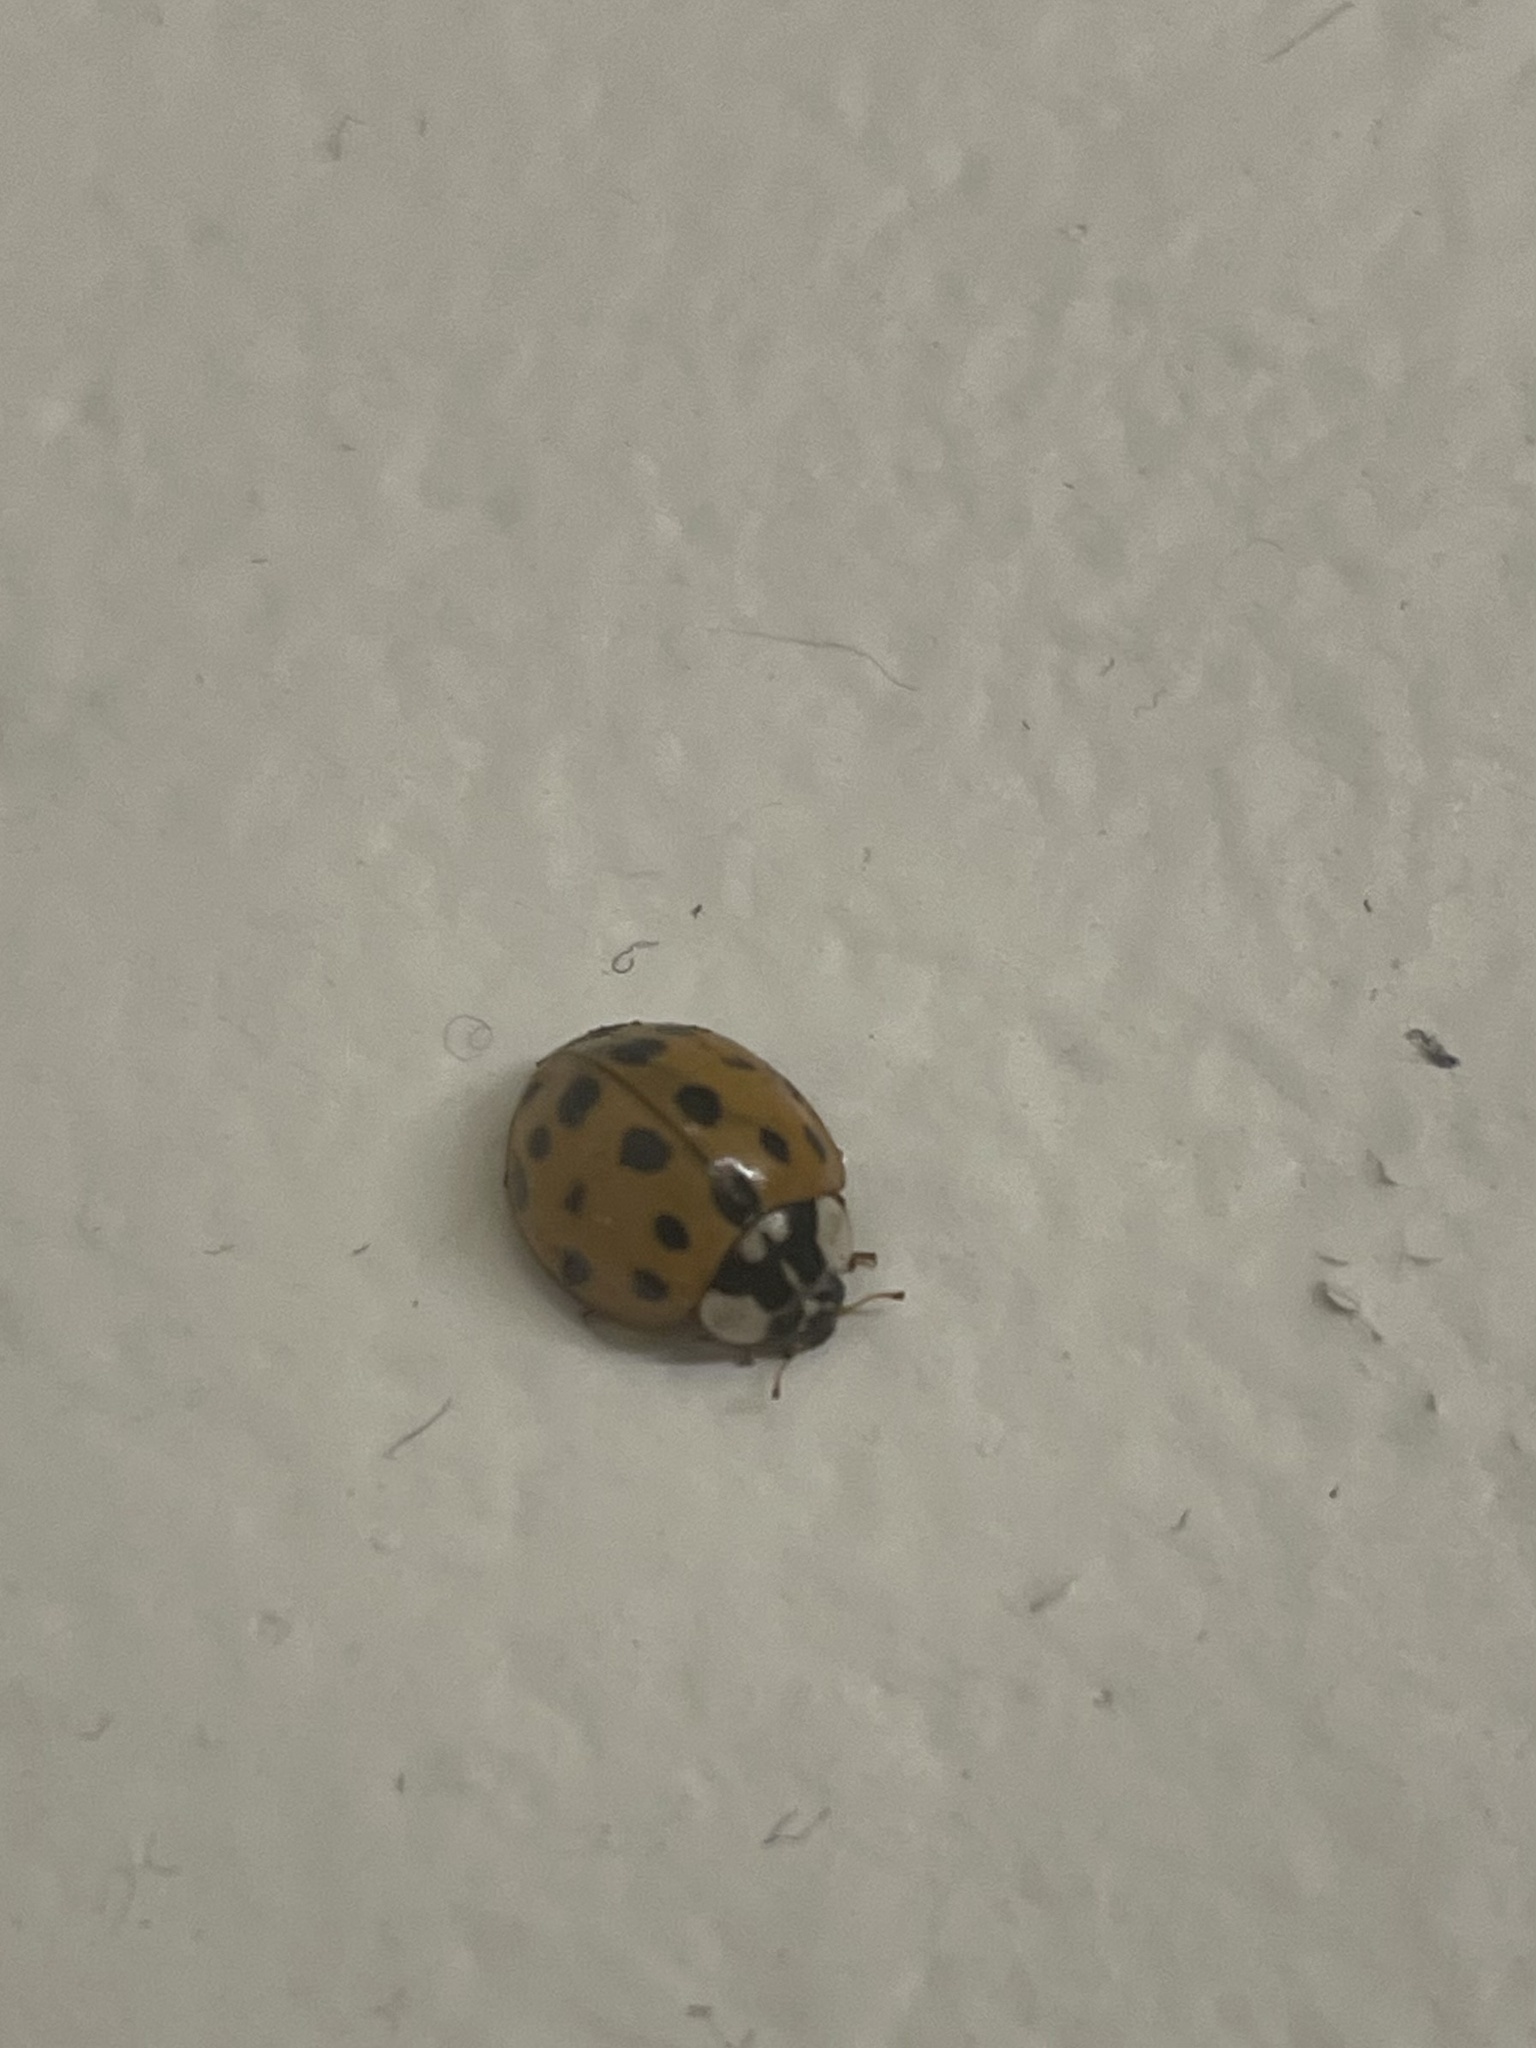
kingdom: Animalia
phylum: Arthropoda
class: Insecta
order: Coleoptera
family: Coccinellidae
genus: Harmonia
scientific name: Harmonia axyridis
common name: Harlequin ladybird
